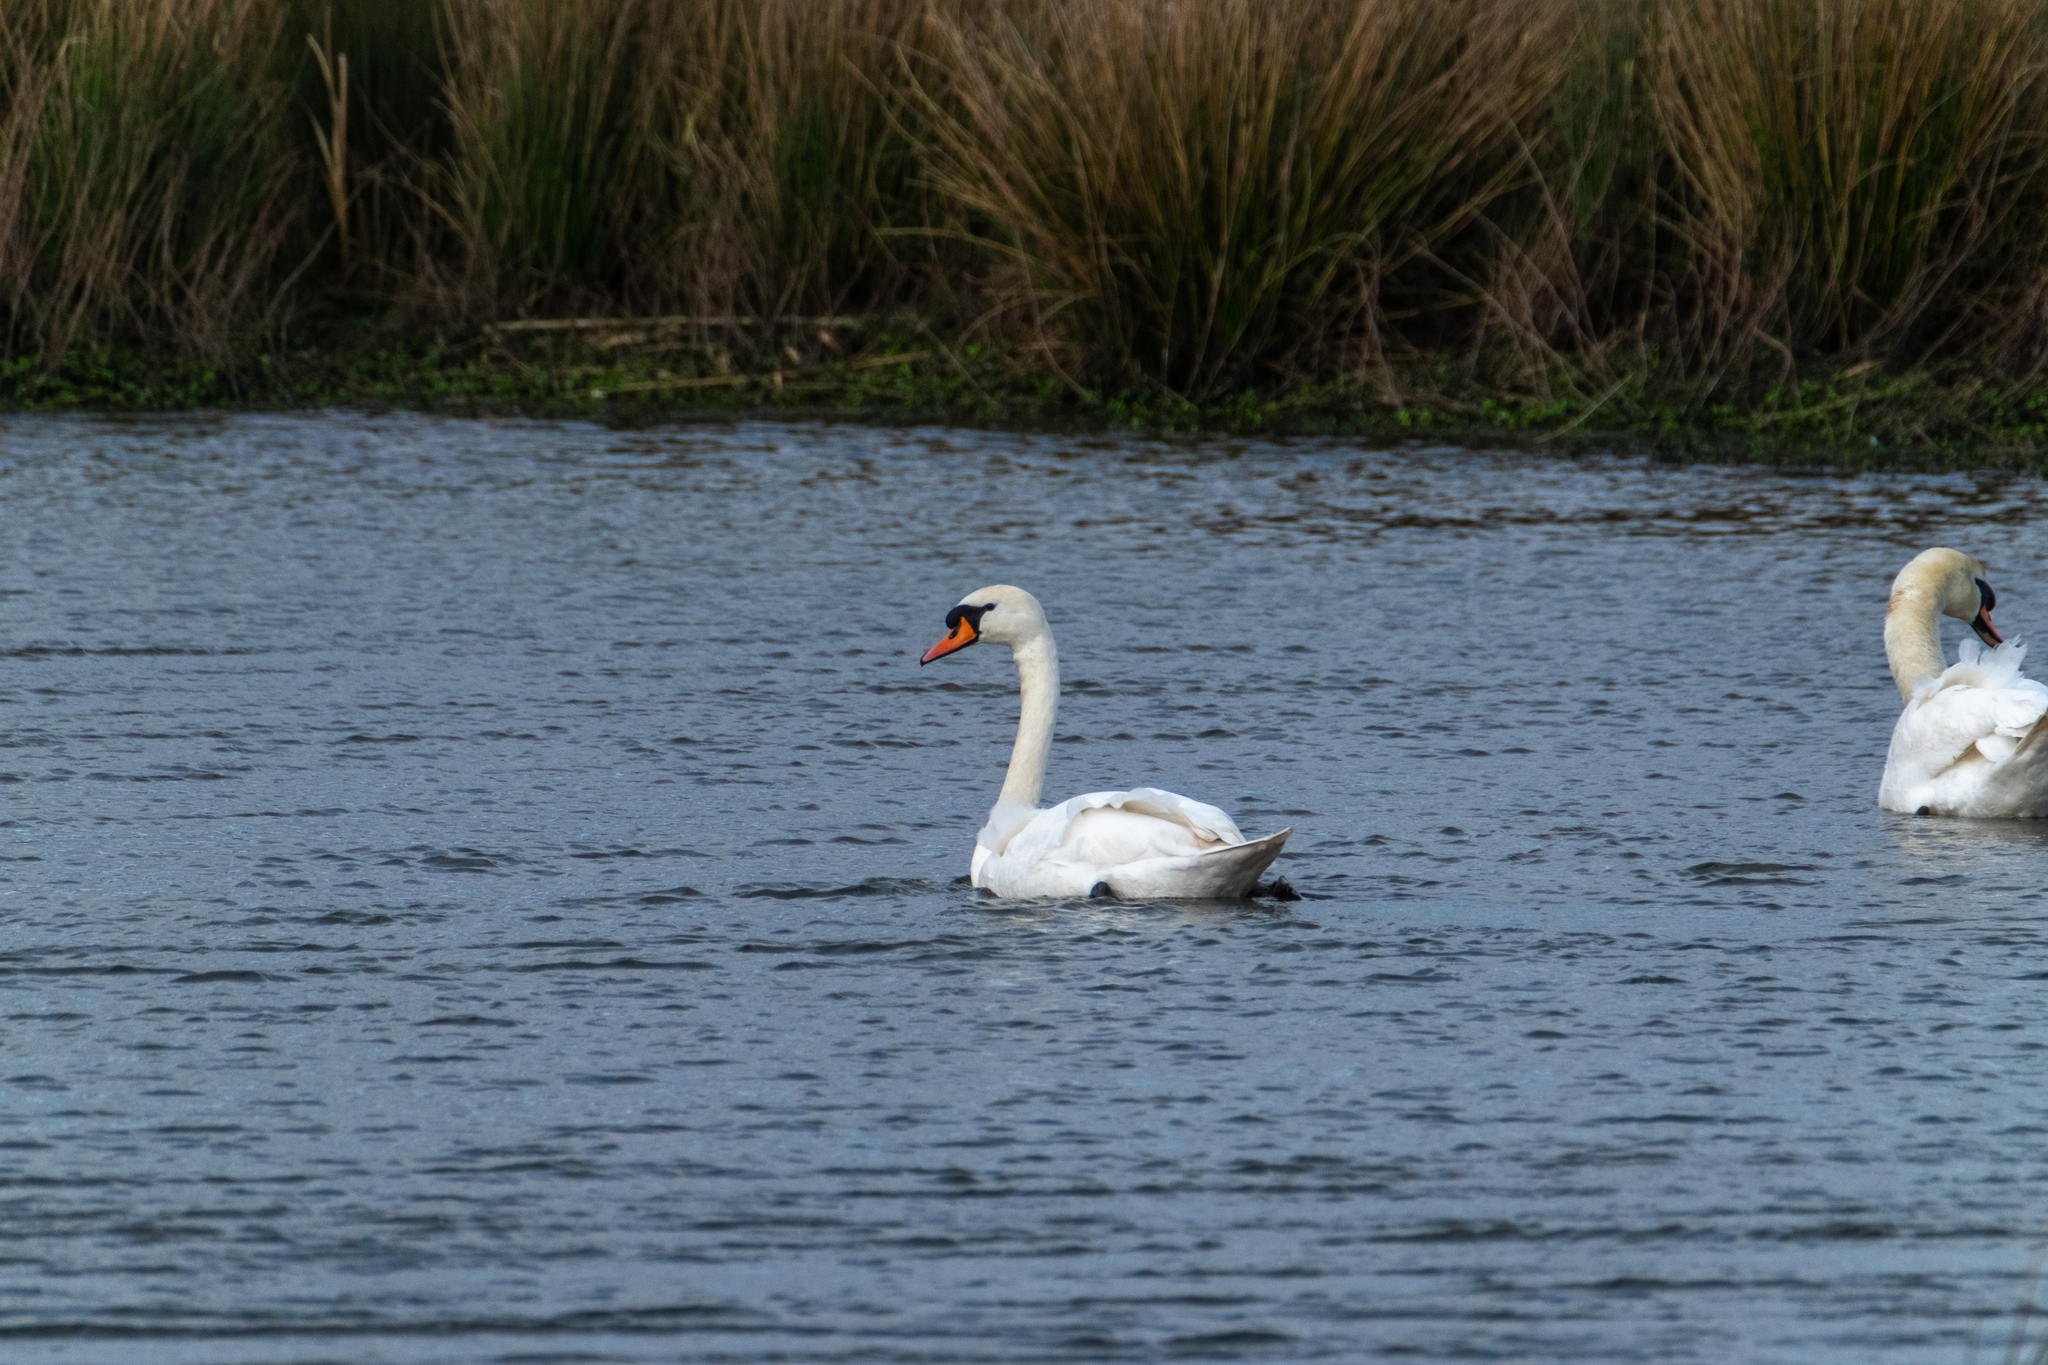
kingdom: Animalia
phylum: Chordata
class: Aves
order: Anseriformes
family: Anatidae
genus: Cygnus
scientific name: Cygnus olor
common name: Mute swan
